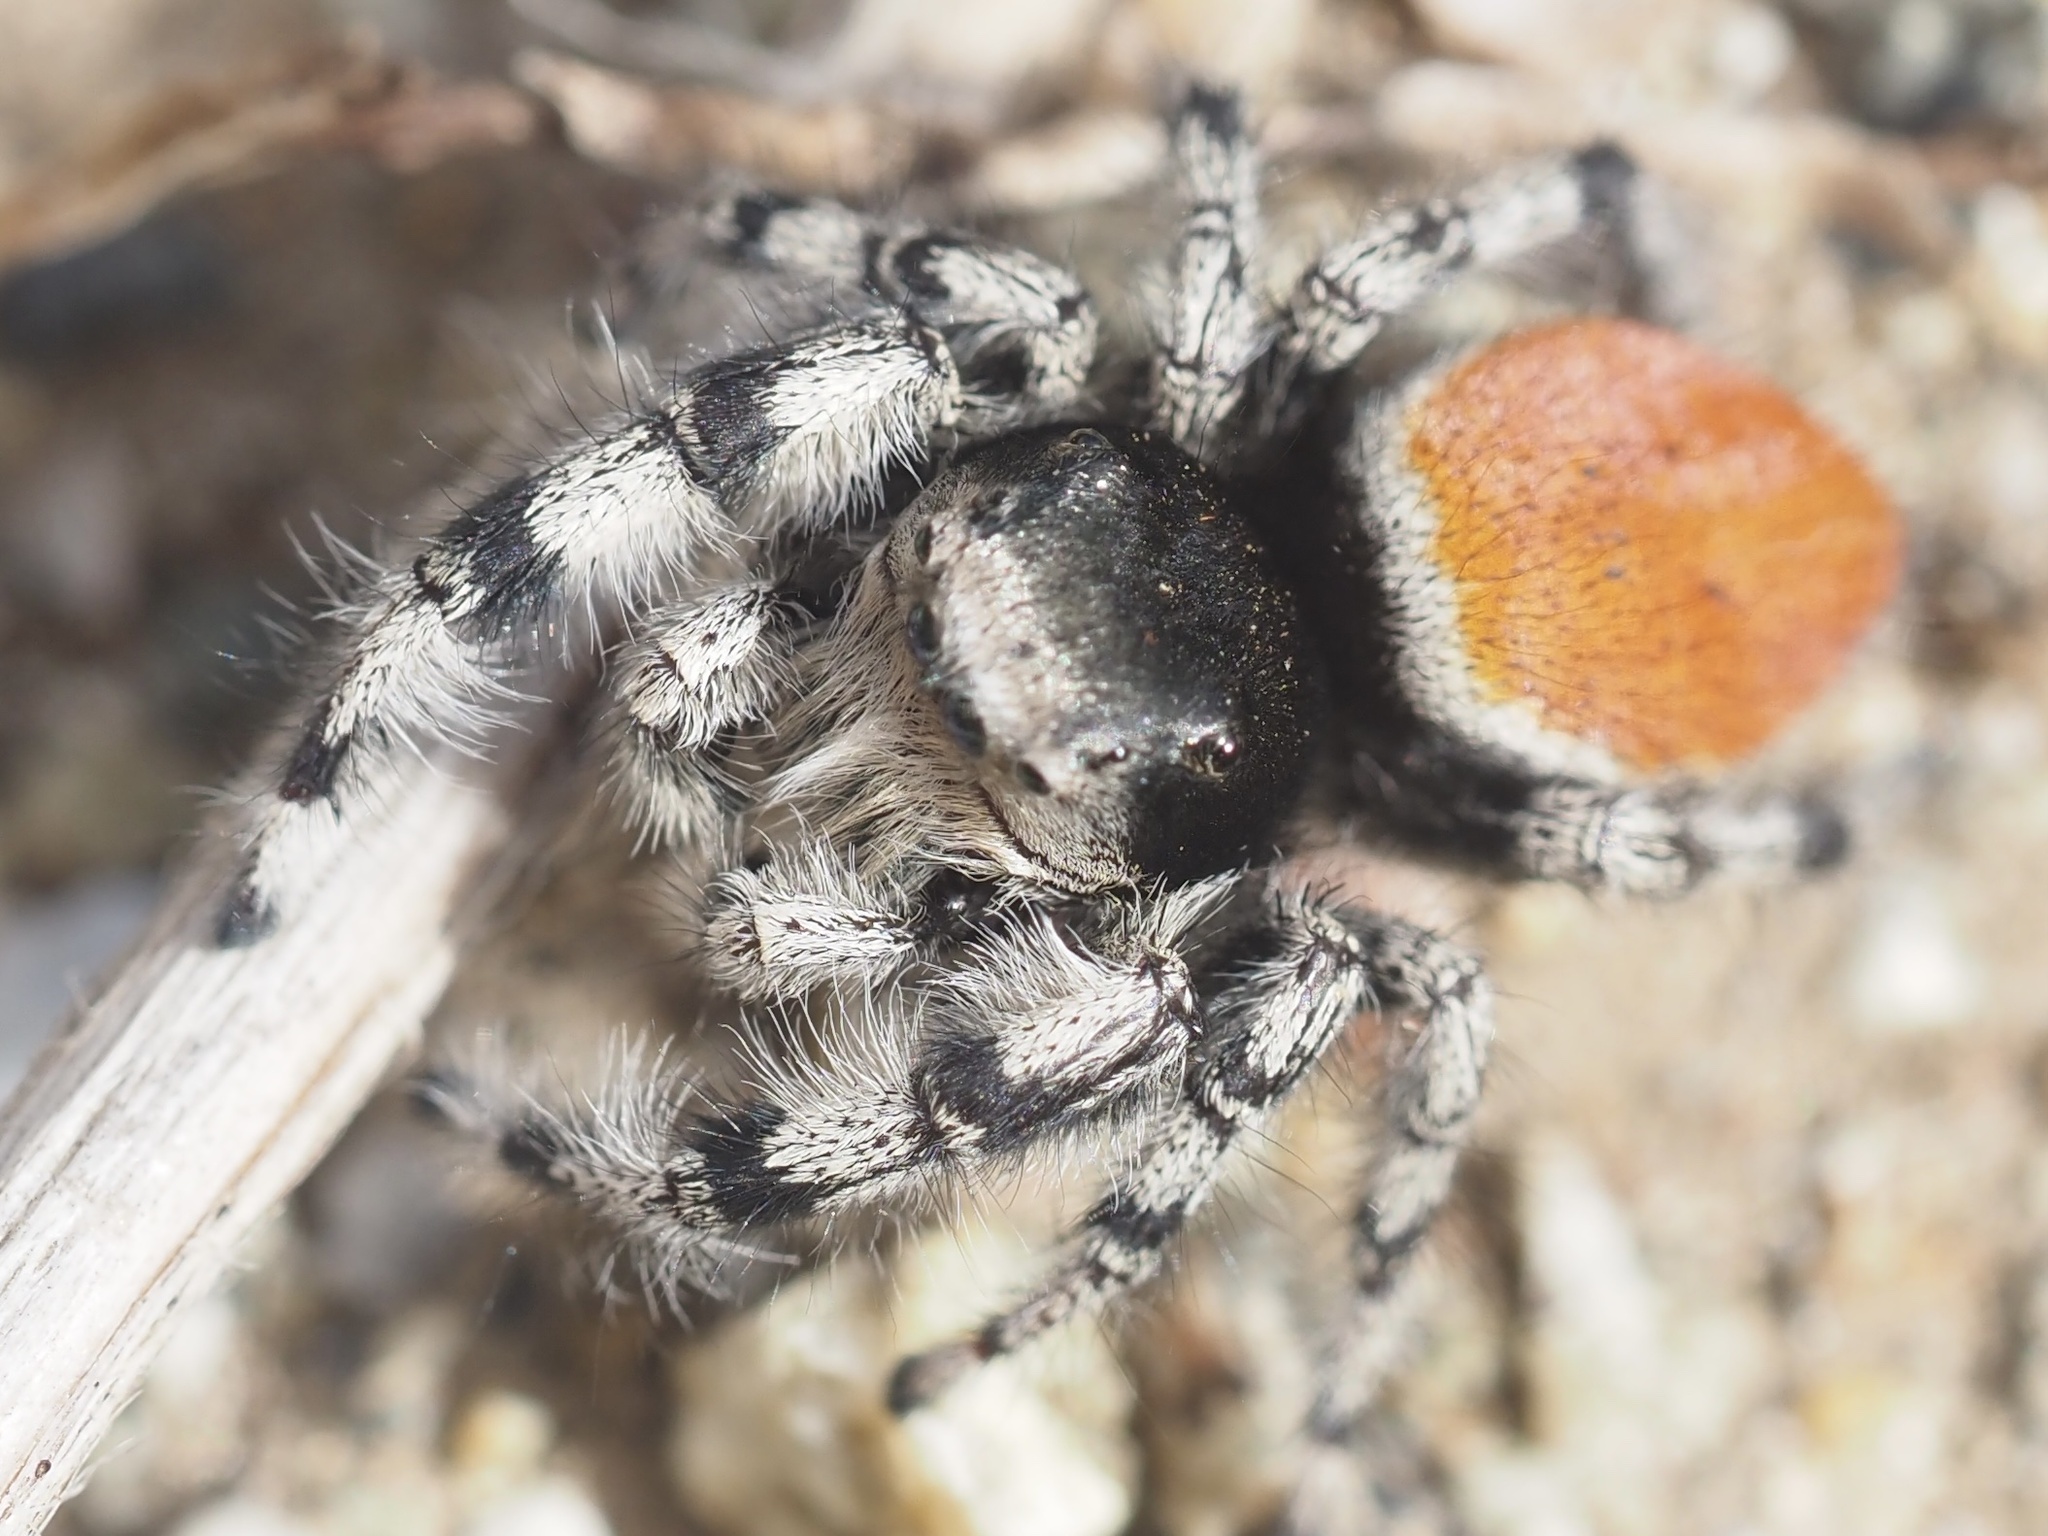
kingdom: Animalia
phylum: Arthropoda
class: Arachnida
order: Araneae
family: Salticidae
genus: Phidippus
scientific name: Phidippus kastoni
